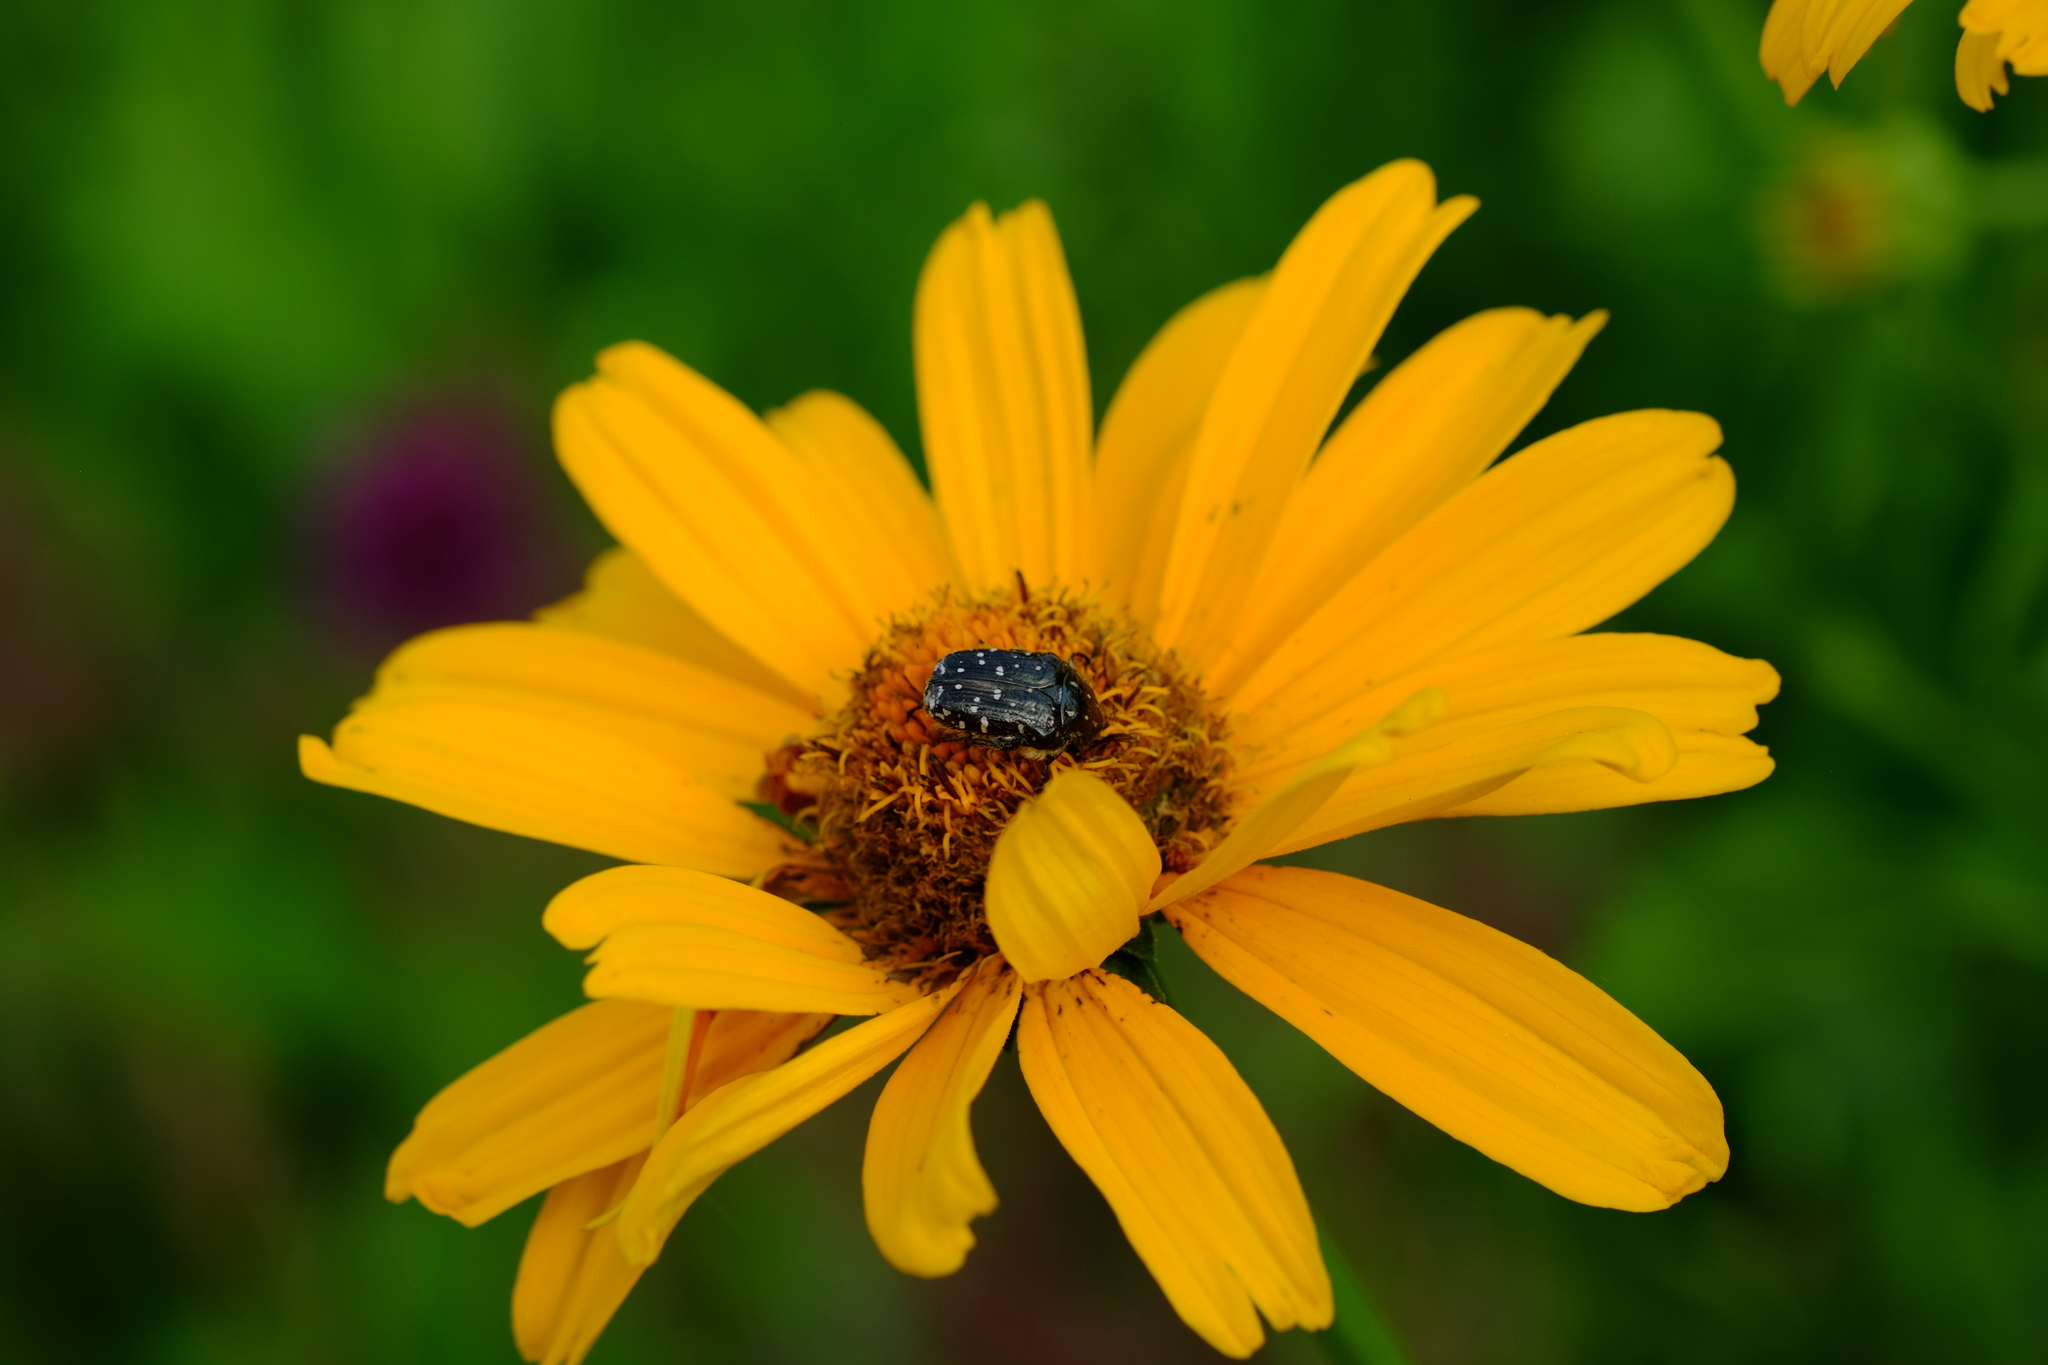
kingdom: Animalia
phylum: Arthropoda
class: Insecta
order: Coleoptera
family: Scarabaeidae
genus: Oxythyrea
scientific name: Oxythyrea funesta
